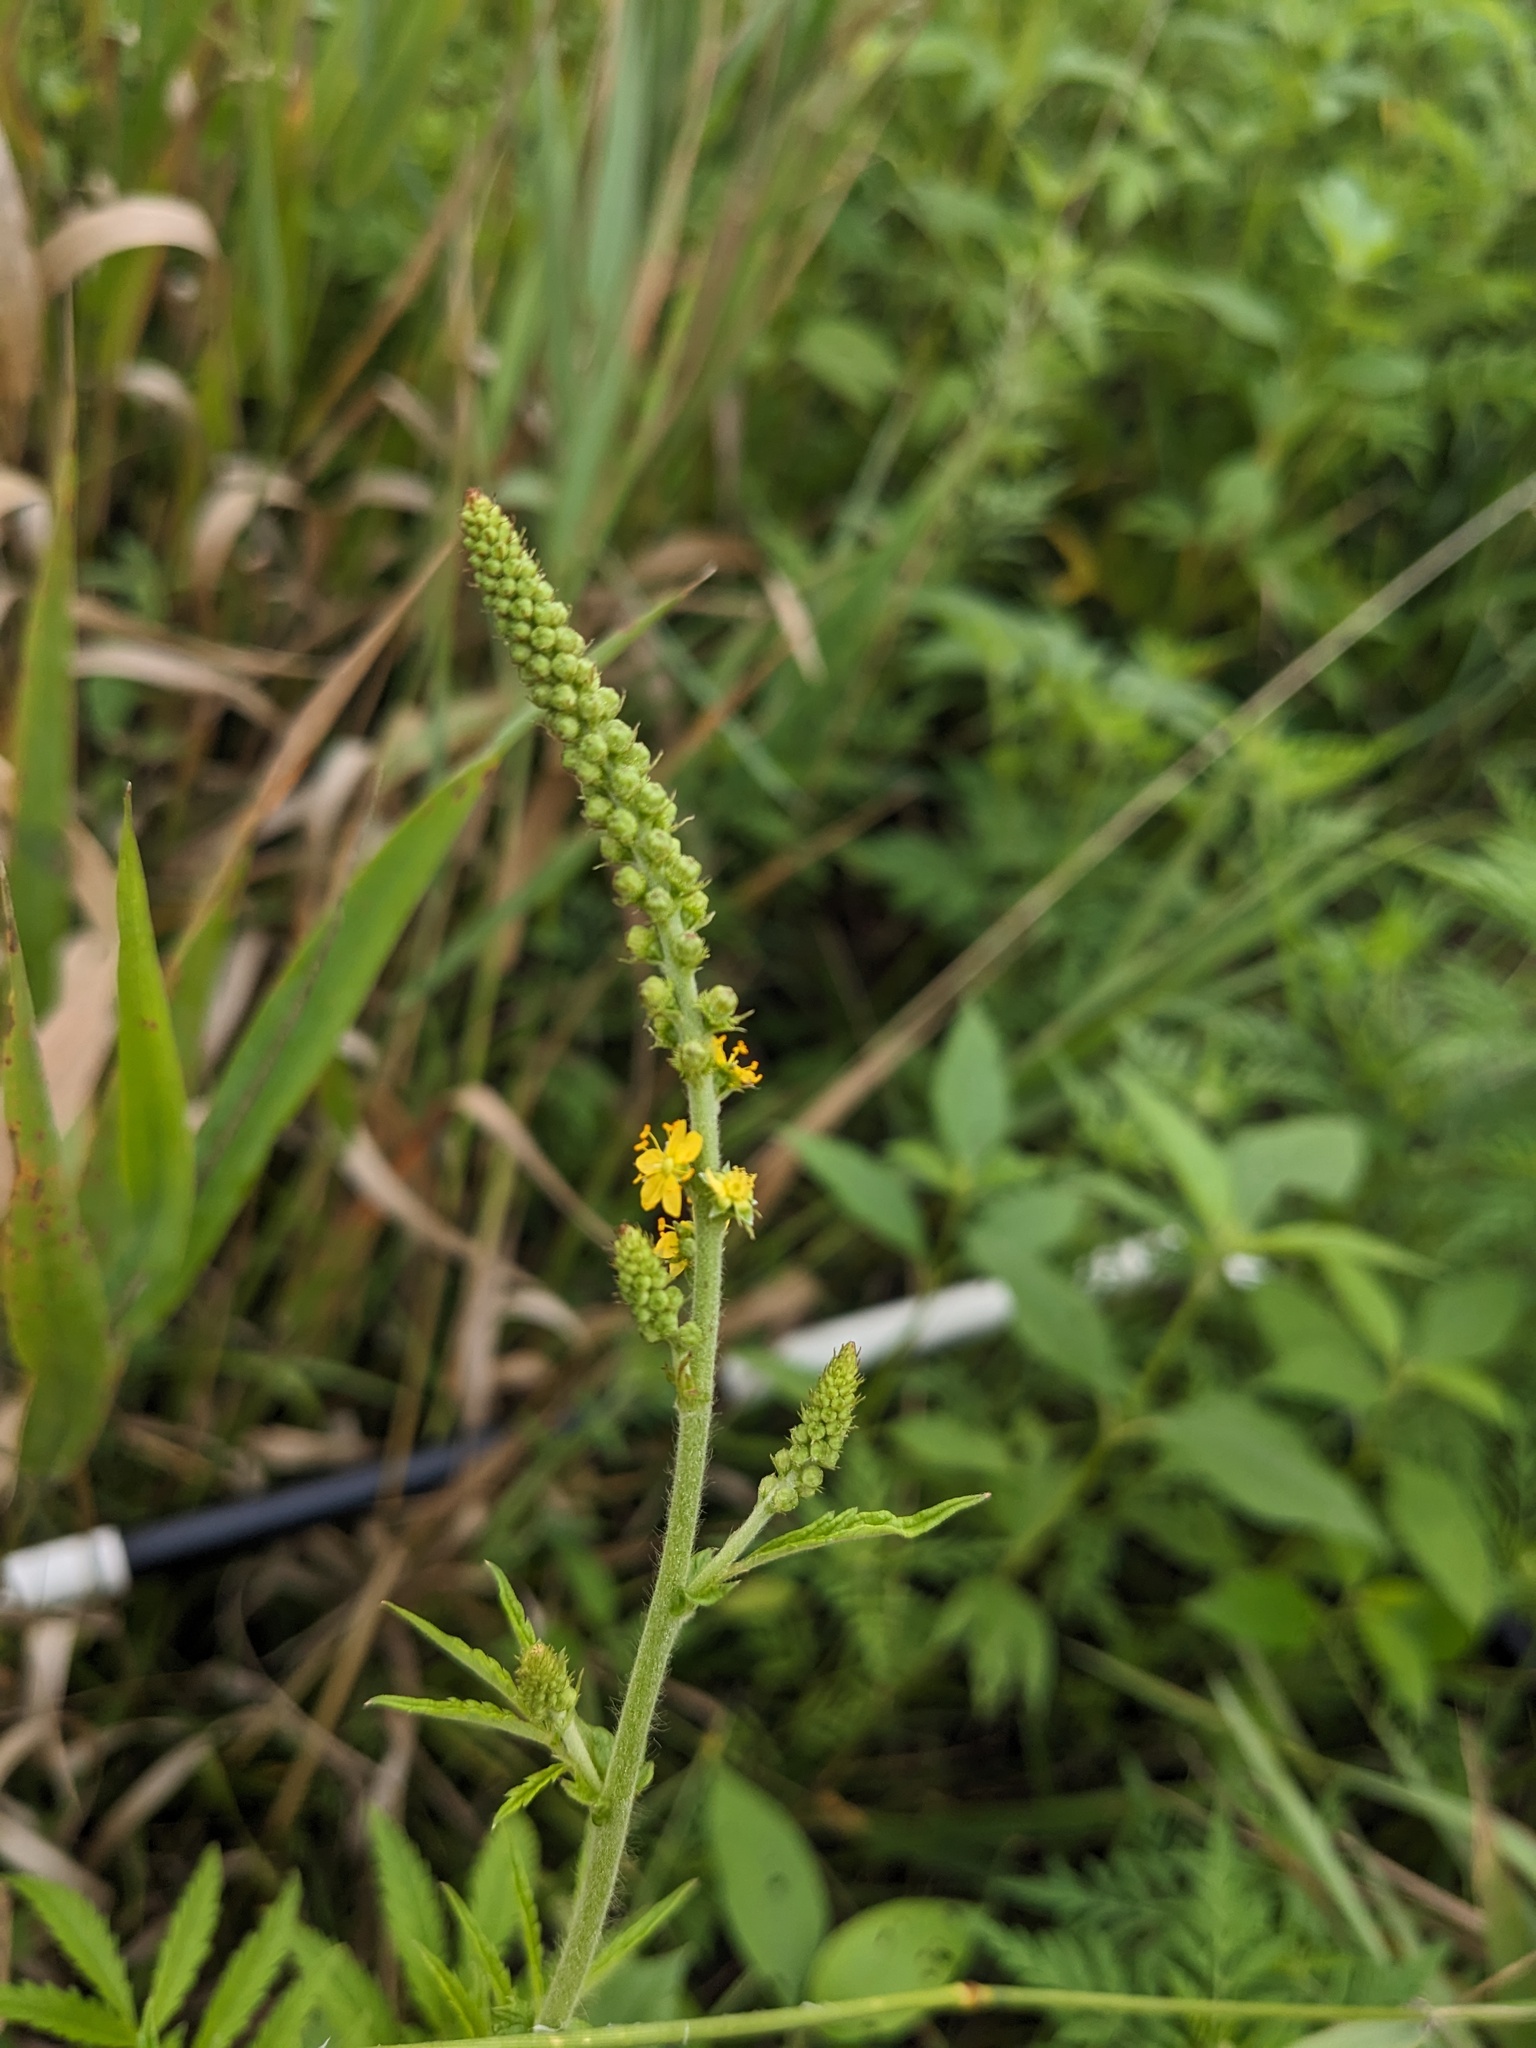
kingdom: Plantae
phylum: Tracheophyta
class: Magnoliopsida
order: Rosales
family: Rosaceae
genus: Agrimonia
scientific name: Agrimonia parviflora
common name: Harvest-lice
